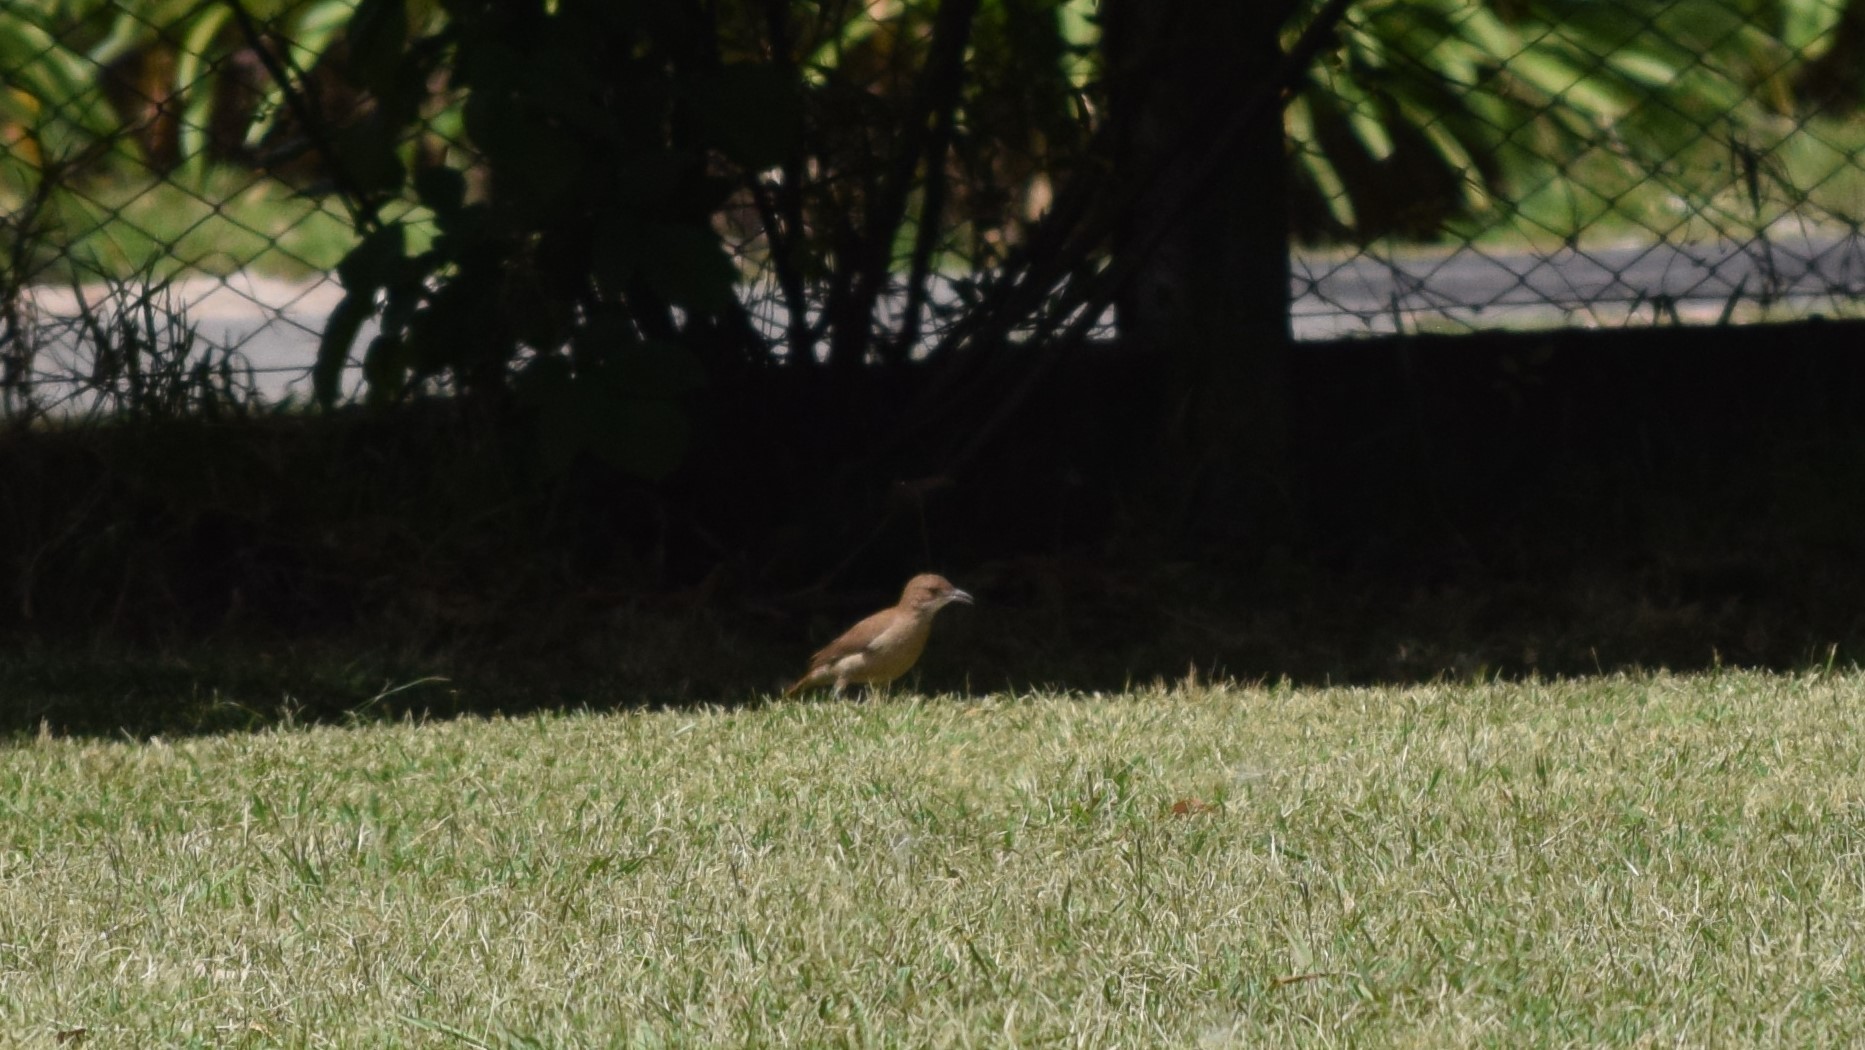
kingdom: Animalia
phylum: Chordata
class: Aves
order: Passeriformes
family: Furnariidae
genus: Furnarius
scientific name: Furnarius rufus
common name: Rufous hornero
